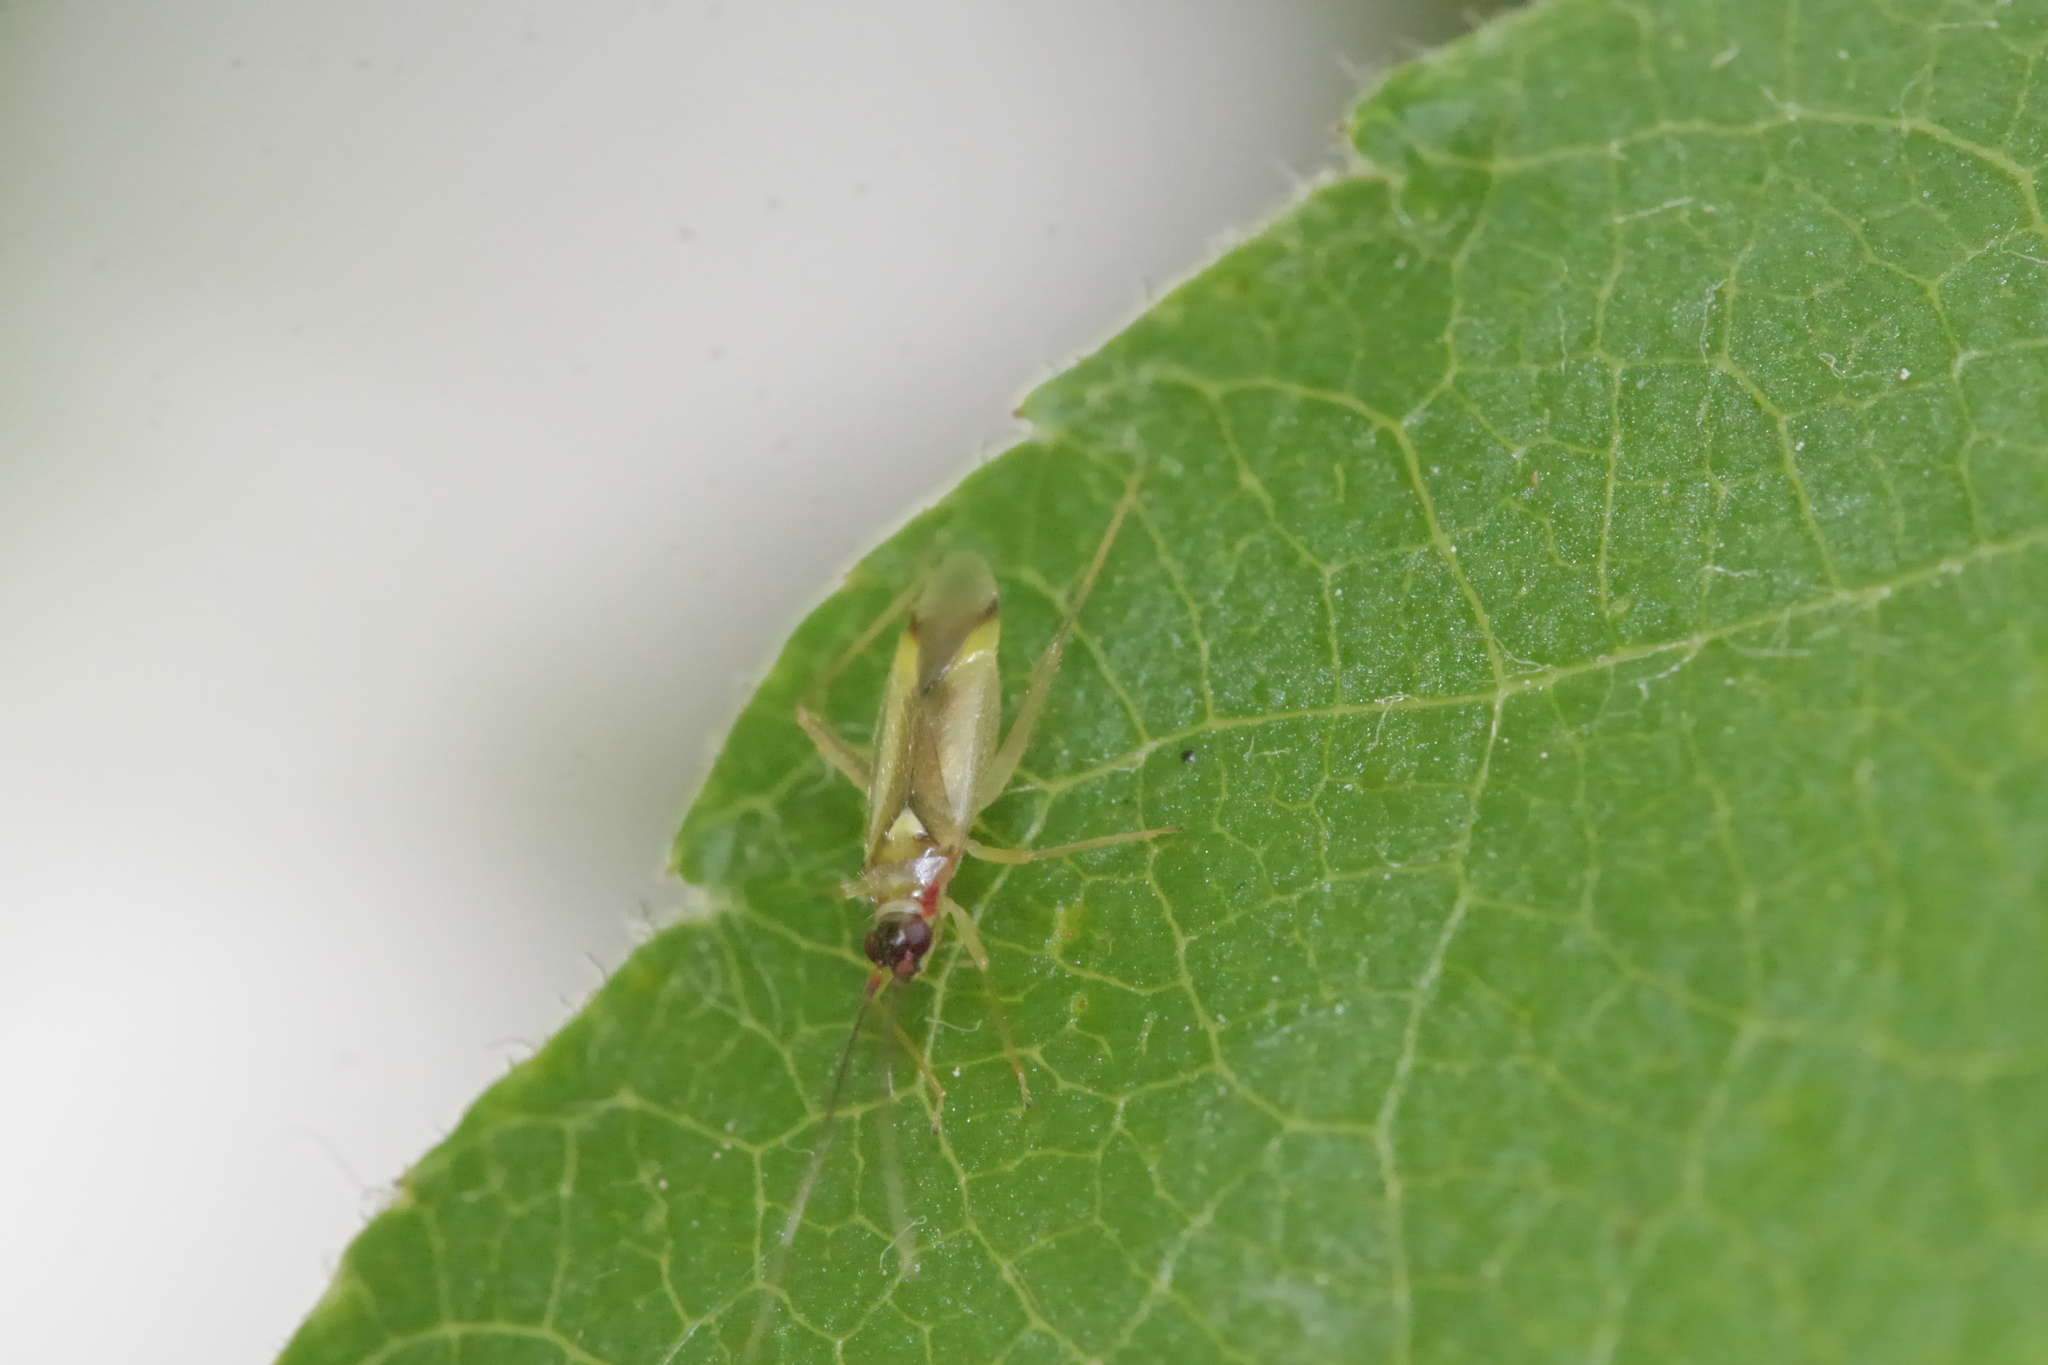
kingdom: Animalia
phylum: Arthropoda
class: Insecta
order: Hemiptera
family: Miridae
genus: Campyloneura
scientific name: Campyloneura virgula
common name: Predatory bug
